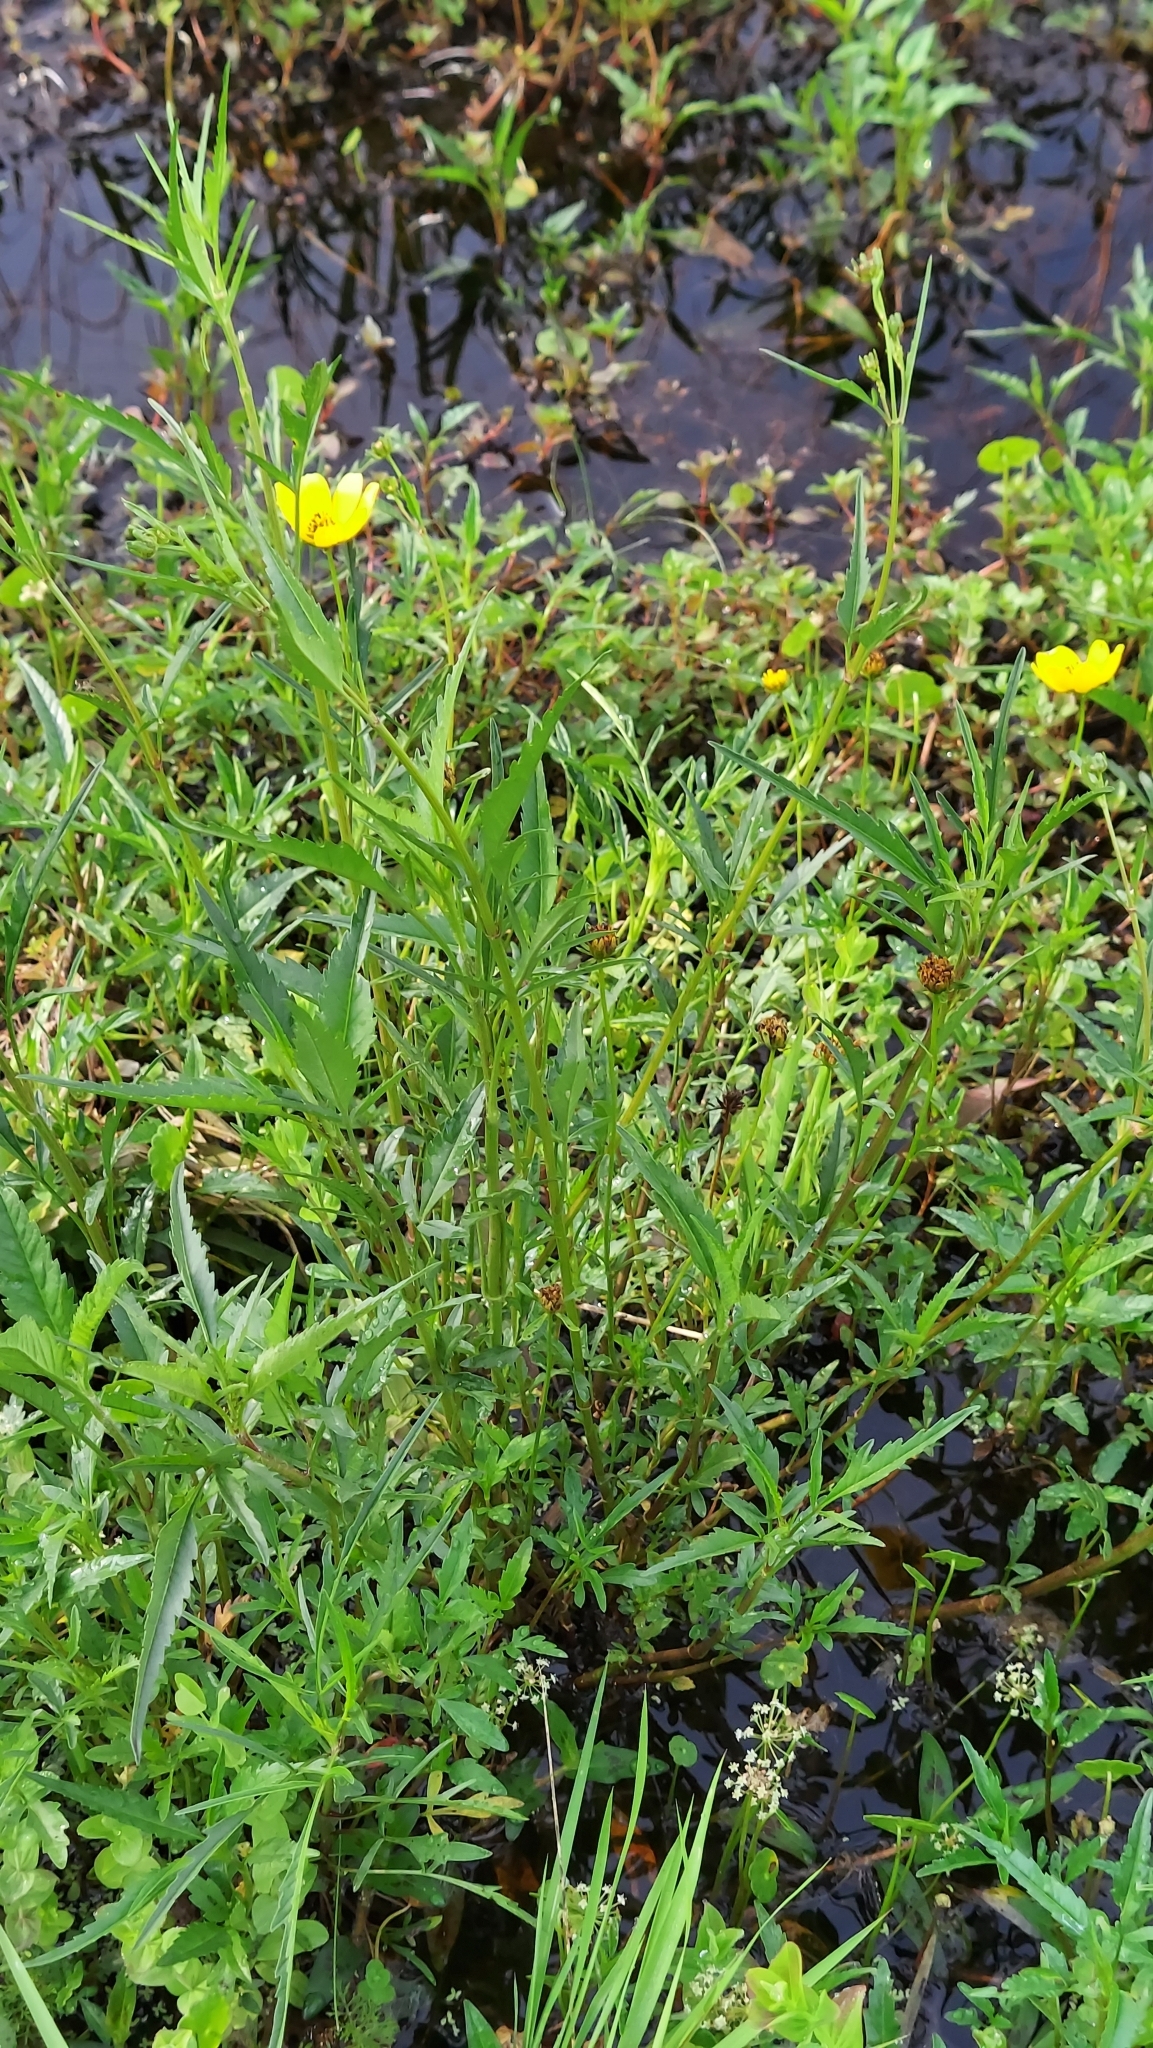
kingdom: Plantae
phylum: Tracheophyta
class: Magnoliopsida
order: Asterales
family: Asteraceae
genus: Bidens
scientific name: Bidens mitis
